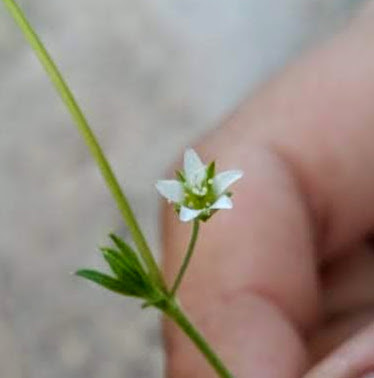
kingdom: Plantae
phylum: Tracheophyta
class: Magnoliopsida
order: Caryophyllales
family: Caryophyllaceae
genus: Arenaria
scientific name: Arenaria lanuginosa
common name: Spread sandwort
